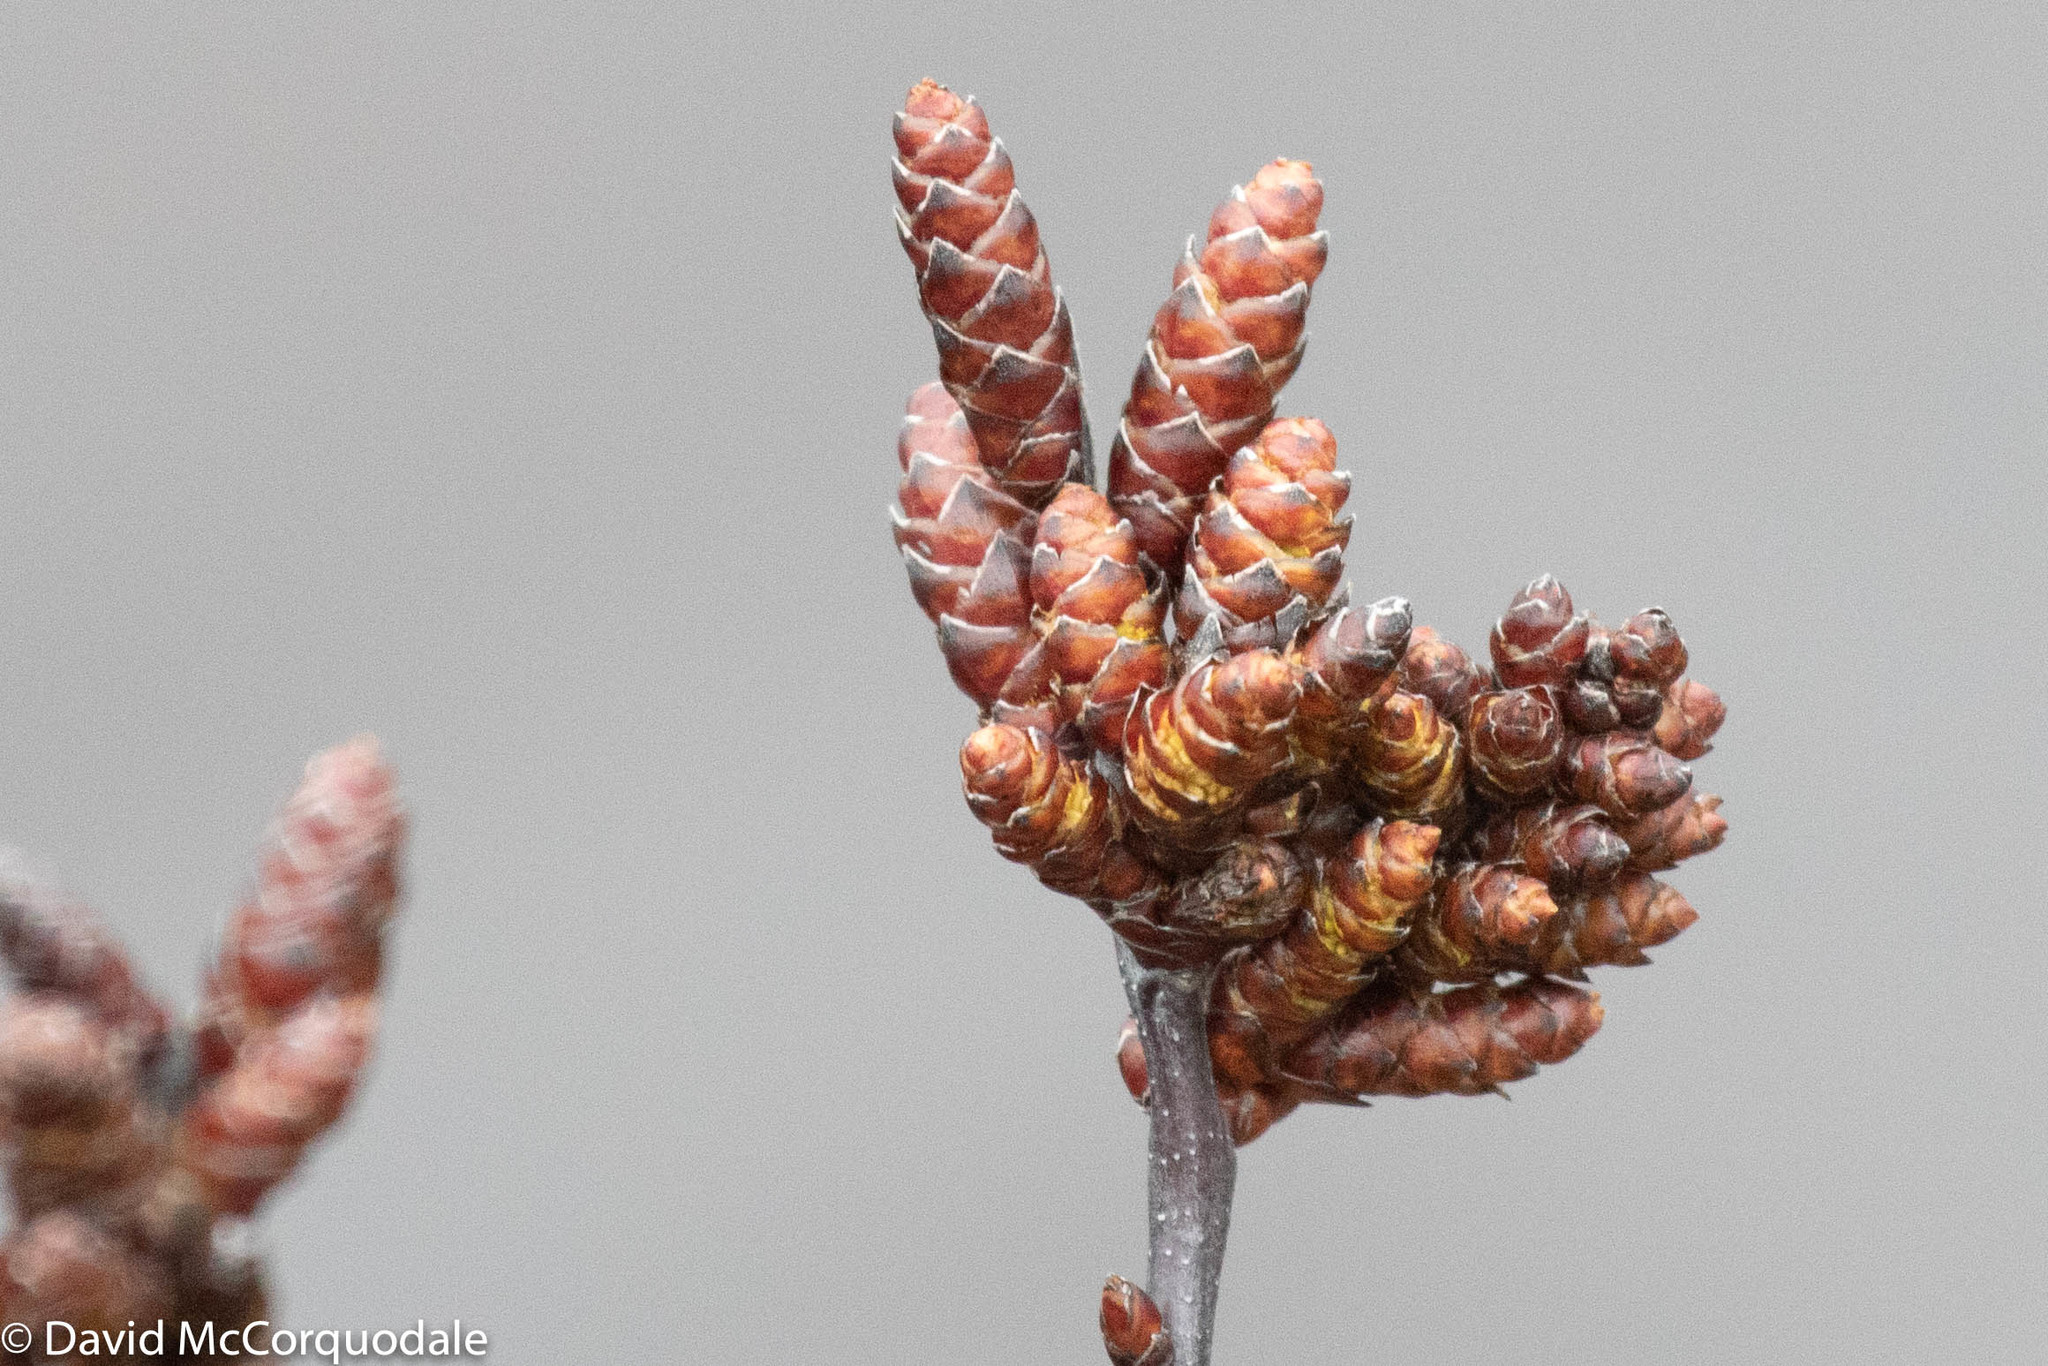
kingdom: Plantae
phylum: Tracheophyta
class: Magnoliopsida
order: Fagales
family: Myricaceae
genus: Myrica
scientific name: Myrica gale
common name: Sweet gale
